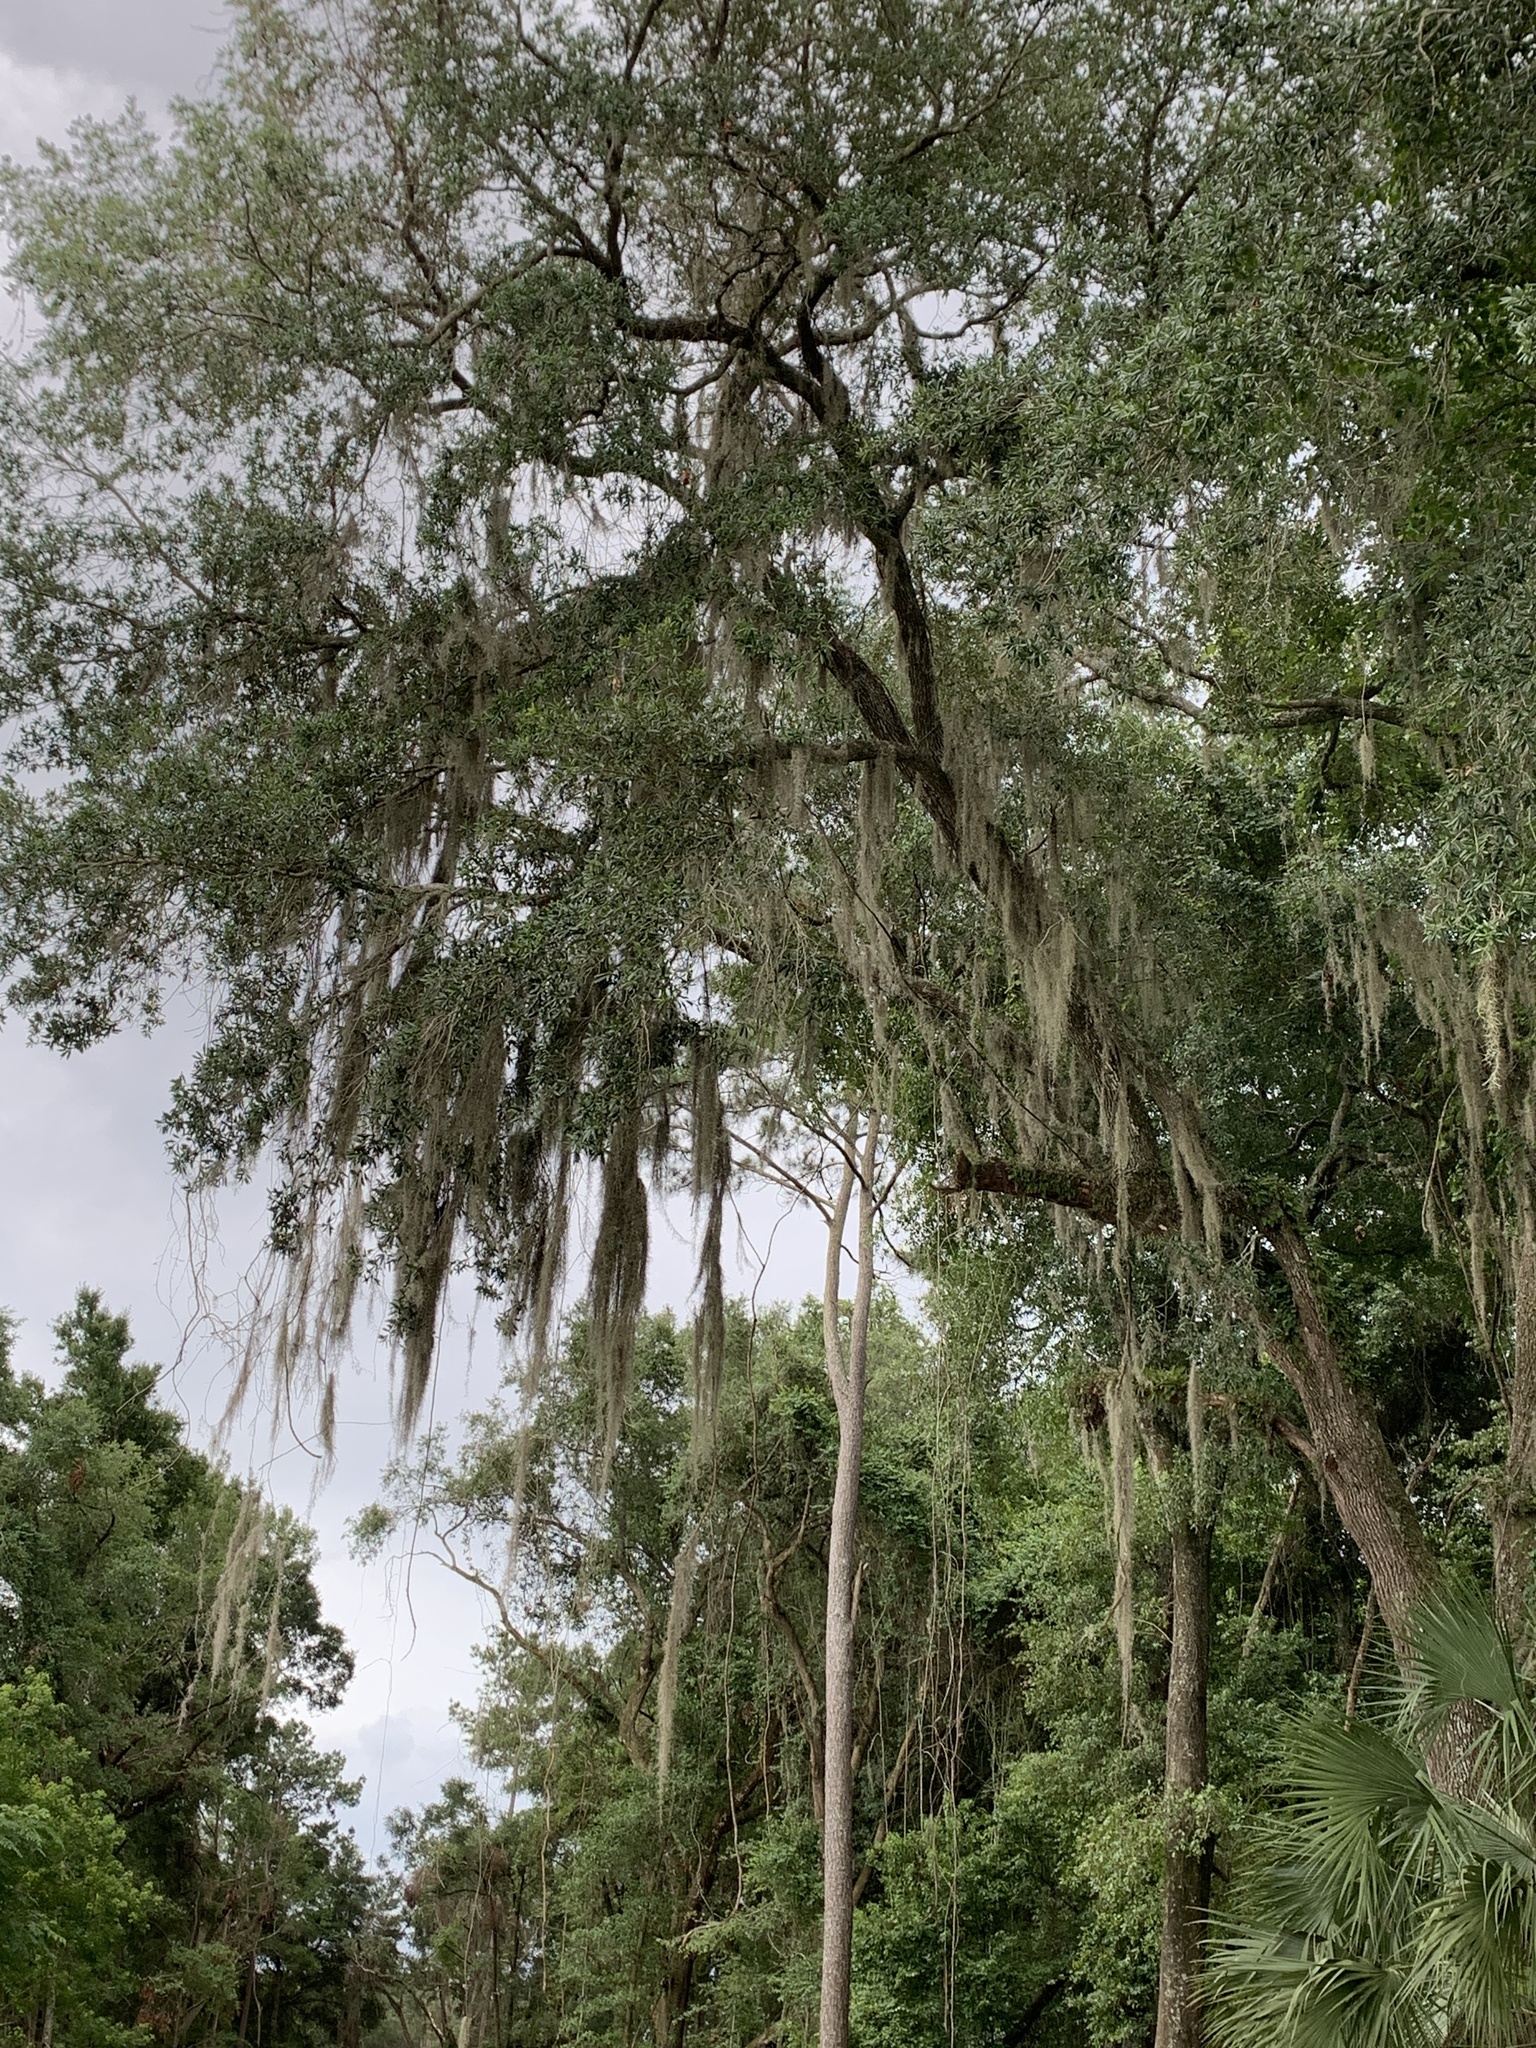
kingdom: Plantae
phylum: Tracheophyta
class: Liliopsida
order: Poales
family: Bromeliaceae
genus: Tillandsia
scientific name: Tillandsia usneoides
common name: Spanish moss
